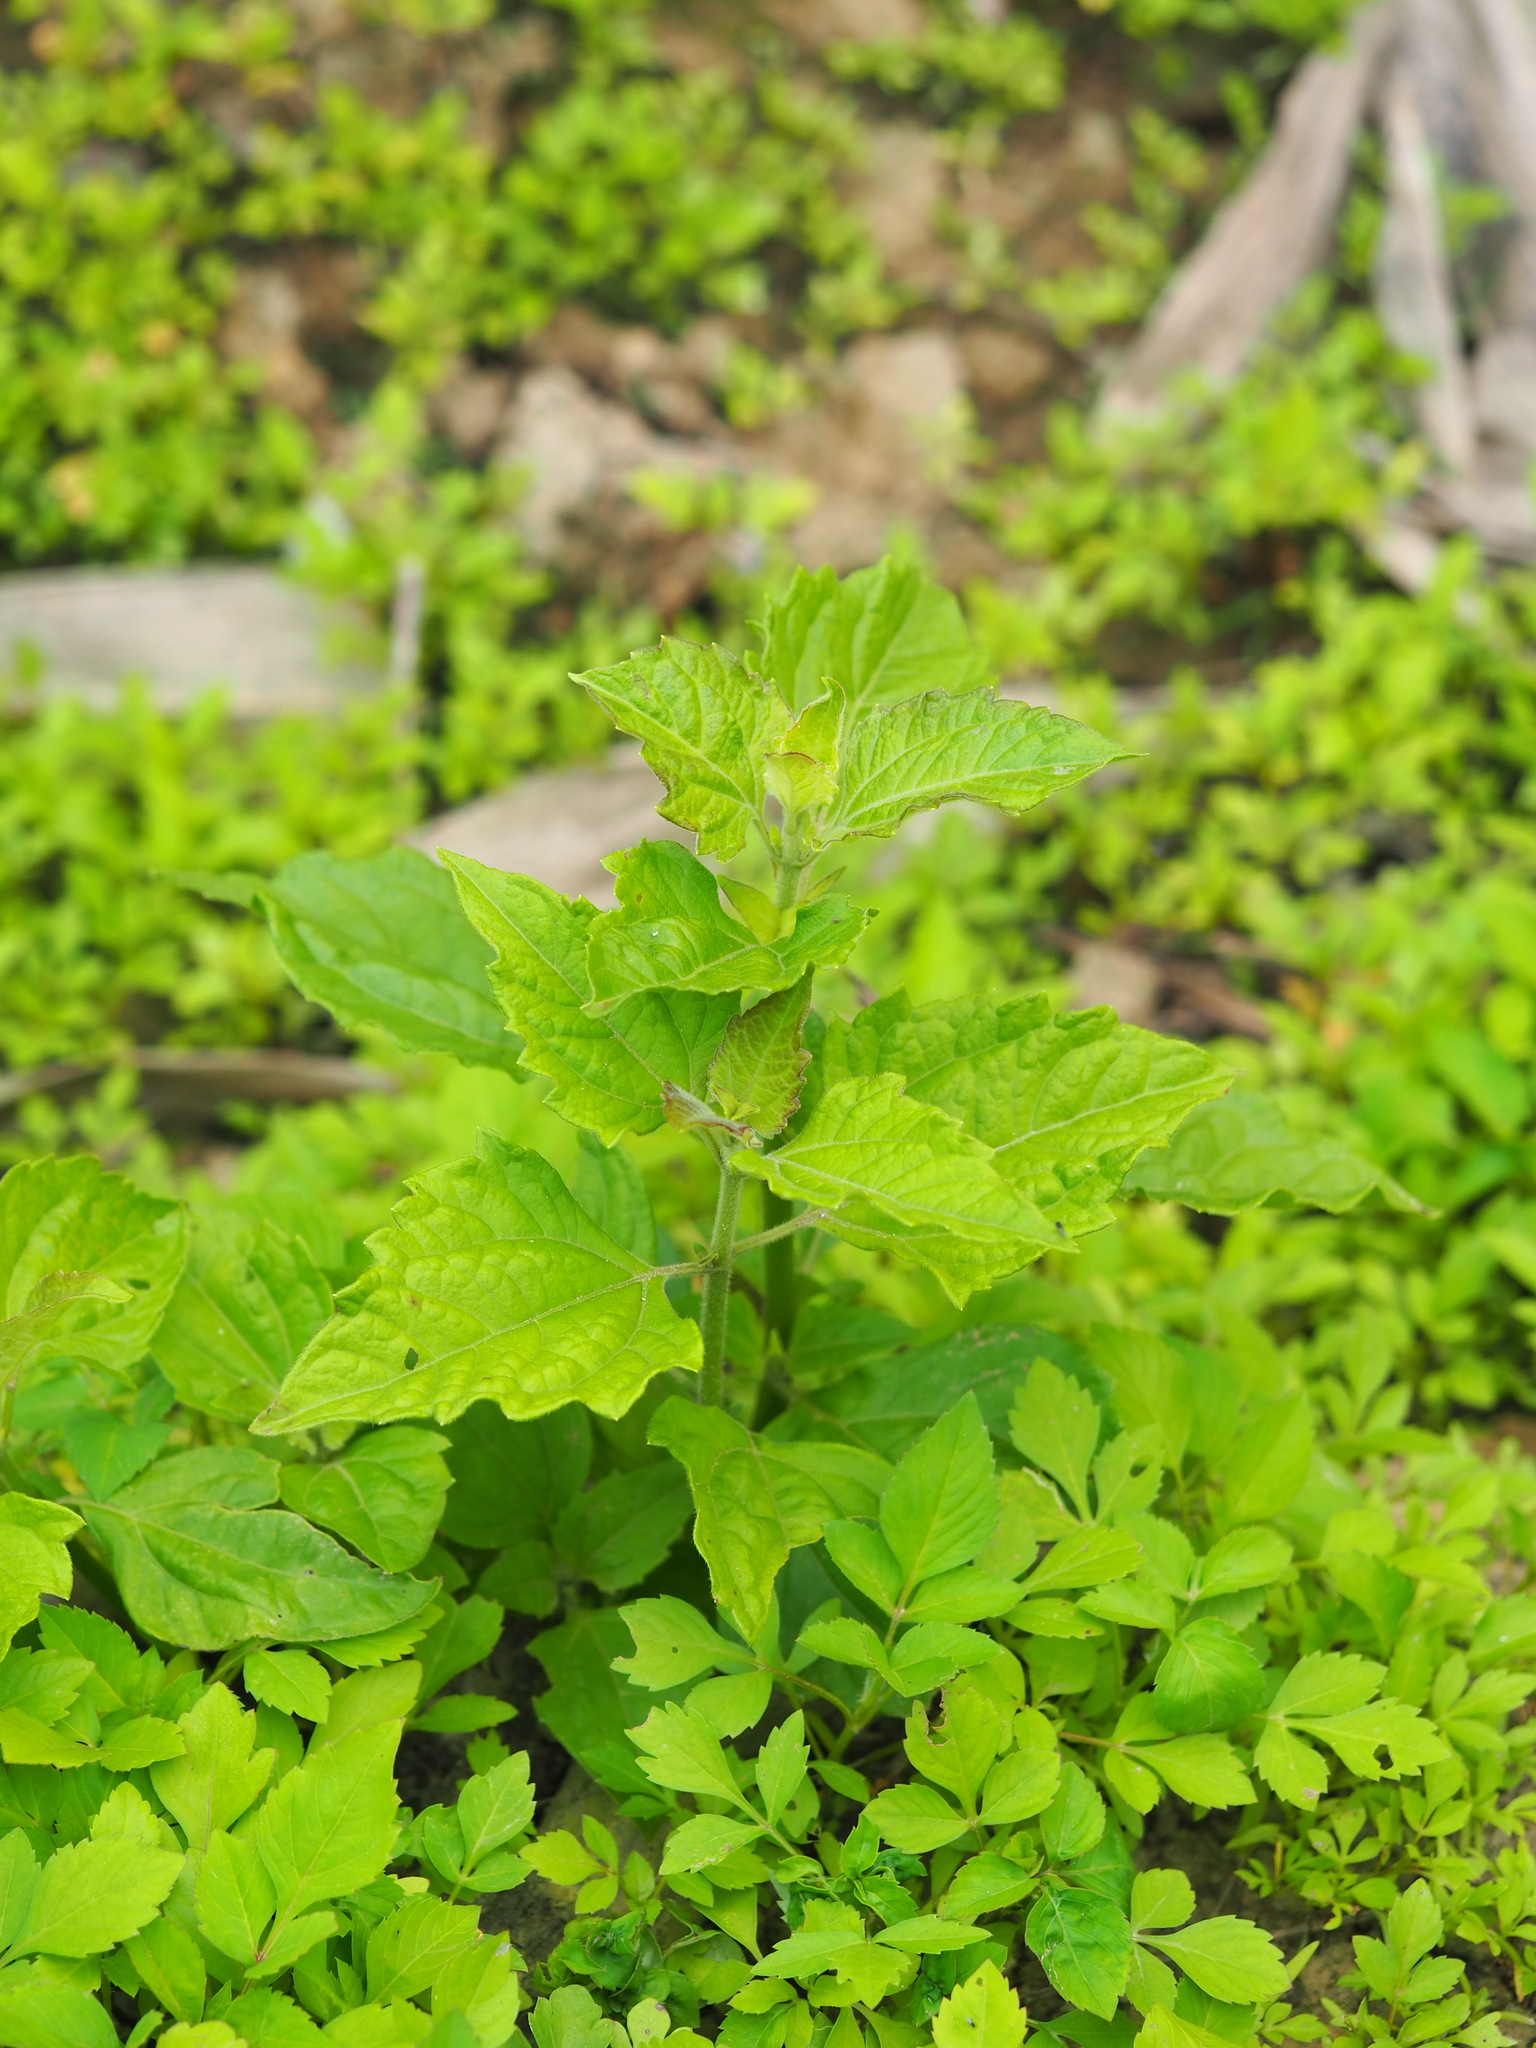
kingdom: Plantae
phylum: Tracheophyta
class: Magnoliopsida
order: Asterales
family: Asteraceae
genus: Chromolaena
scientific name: Chromolaena odorata
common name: Siamweed
